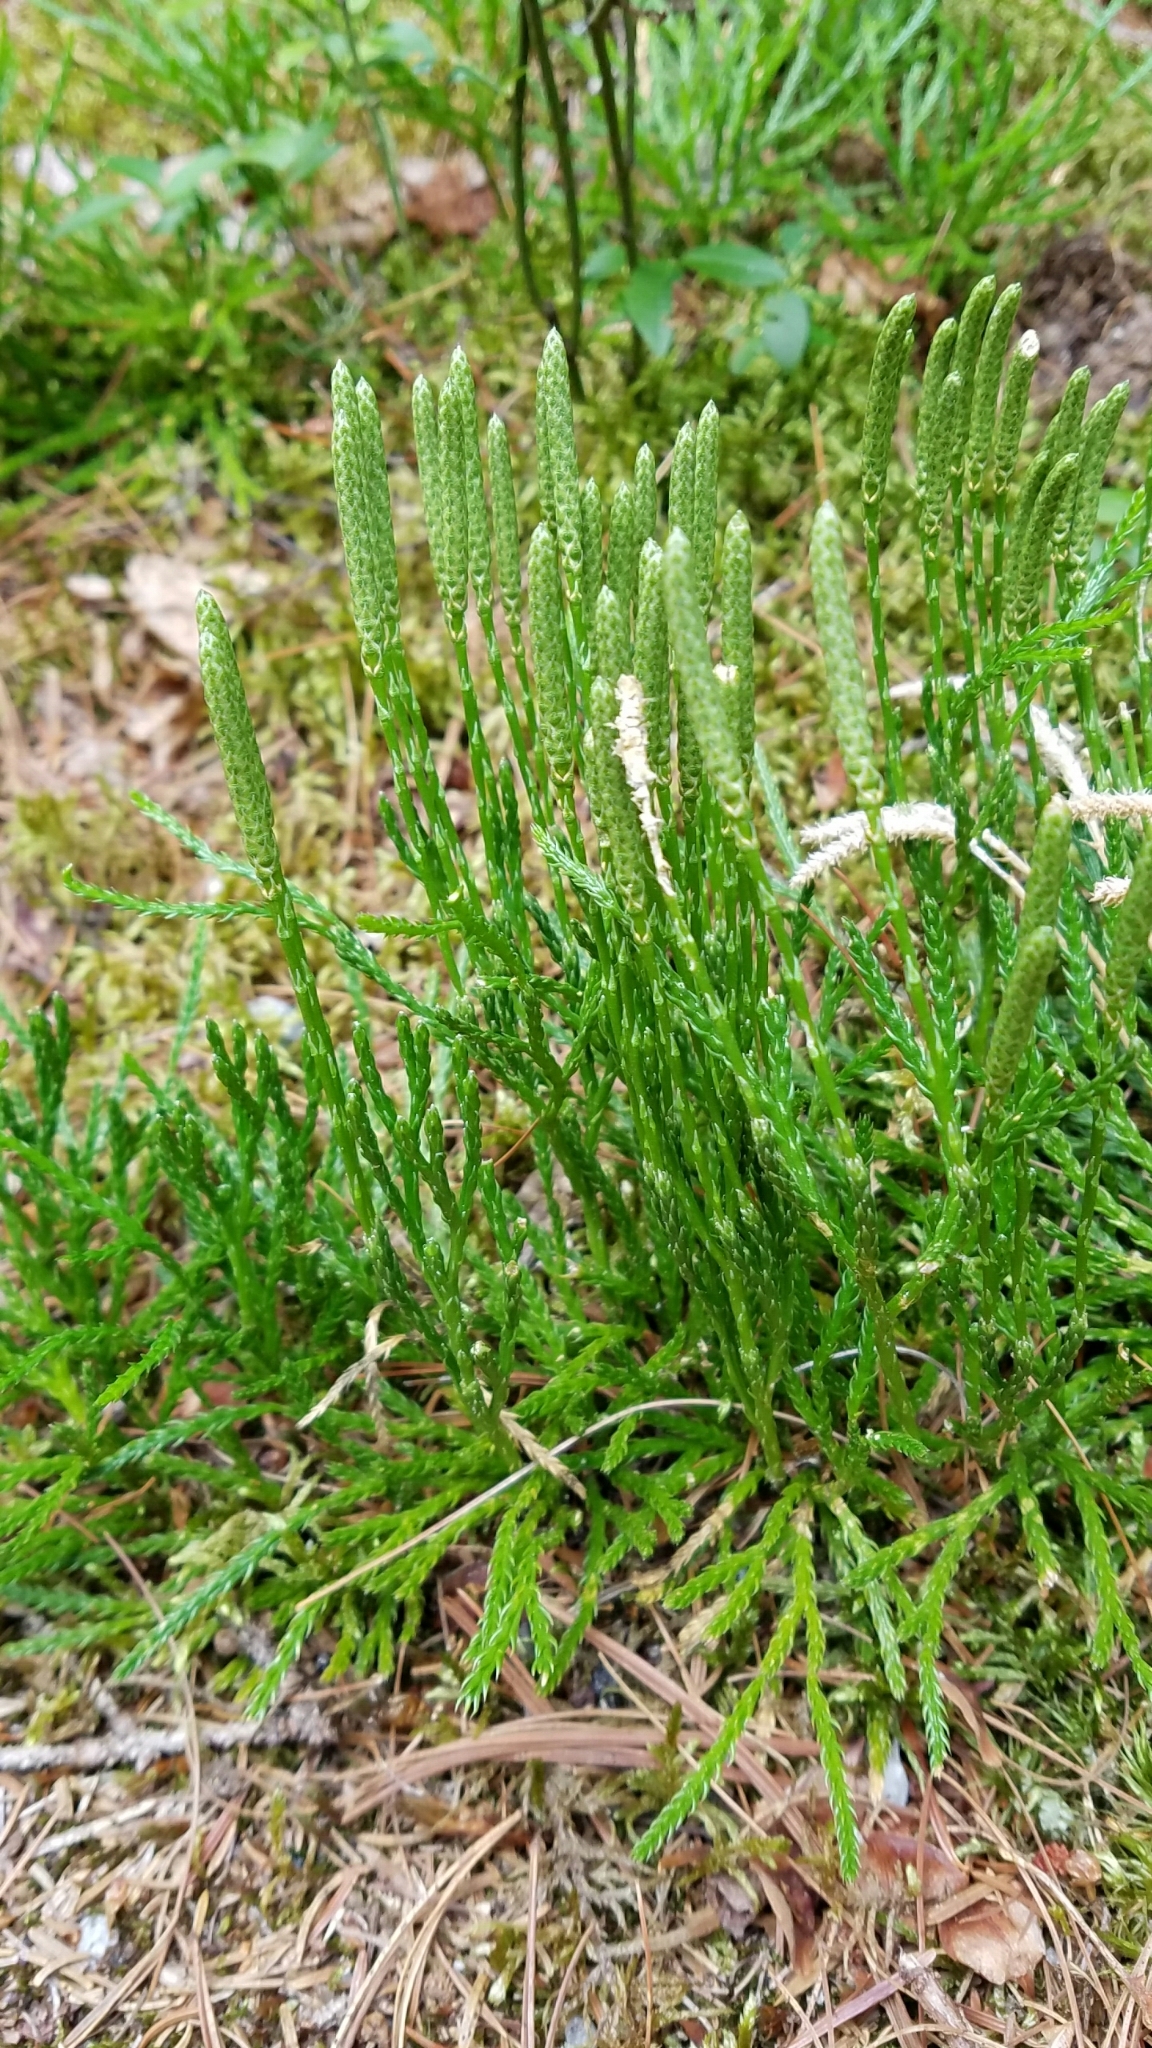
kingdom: Plantae
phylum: Tracheophyta
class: Lycopodiopsida
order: Lycopodiales
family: Lycopodiaceae
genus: Diphasiastrum
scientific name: Diphasiastrum sabinifolium
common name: Juniper clubmoss
